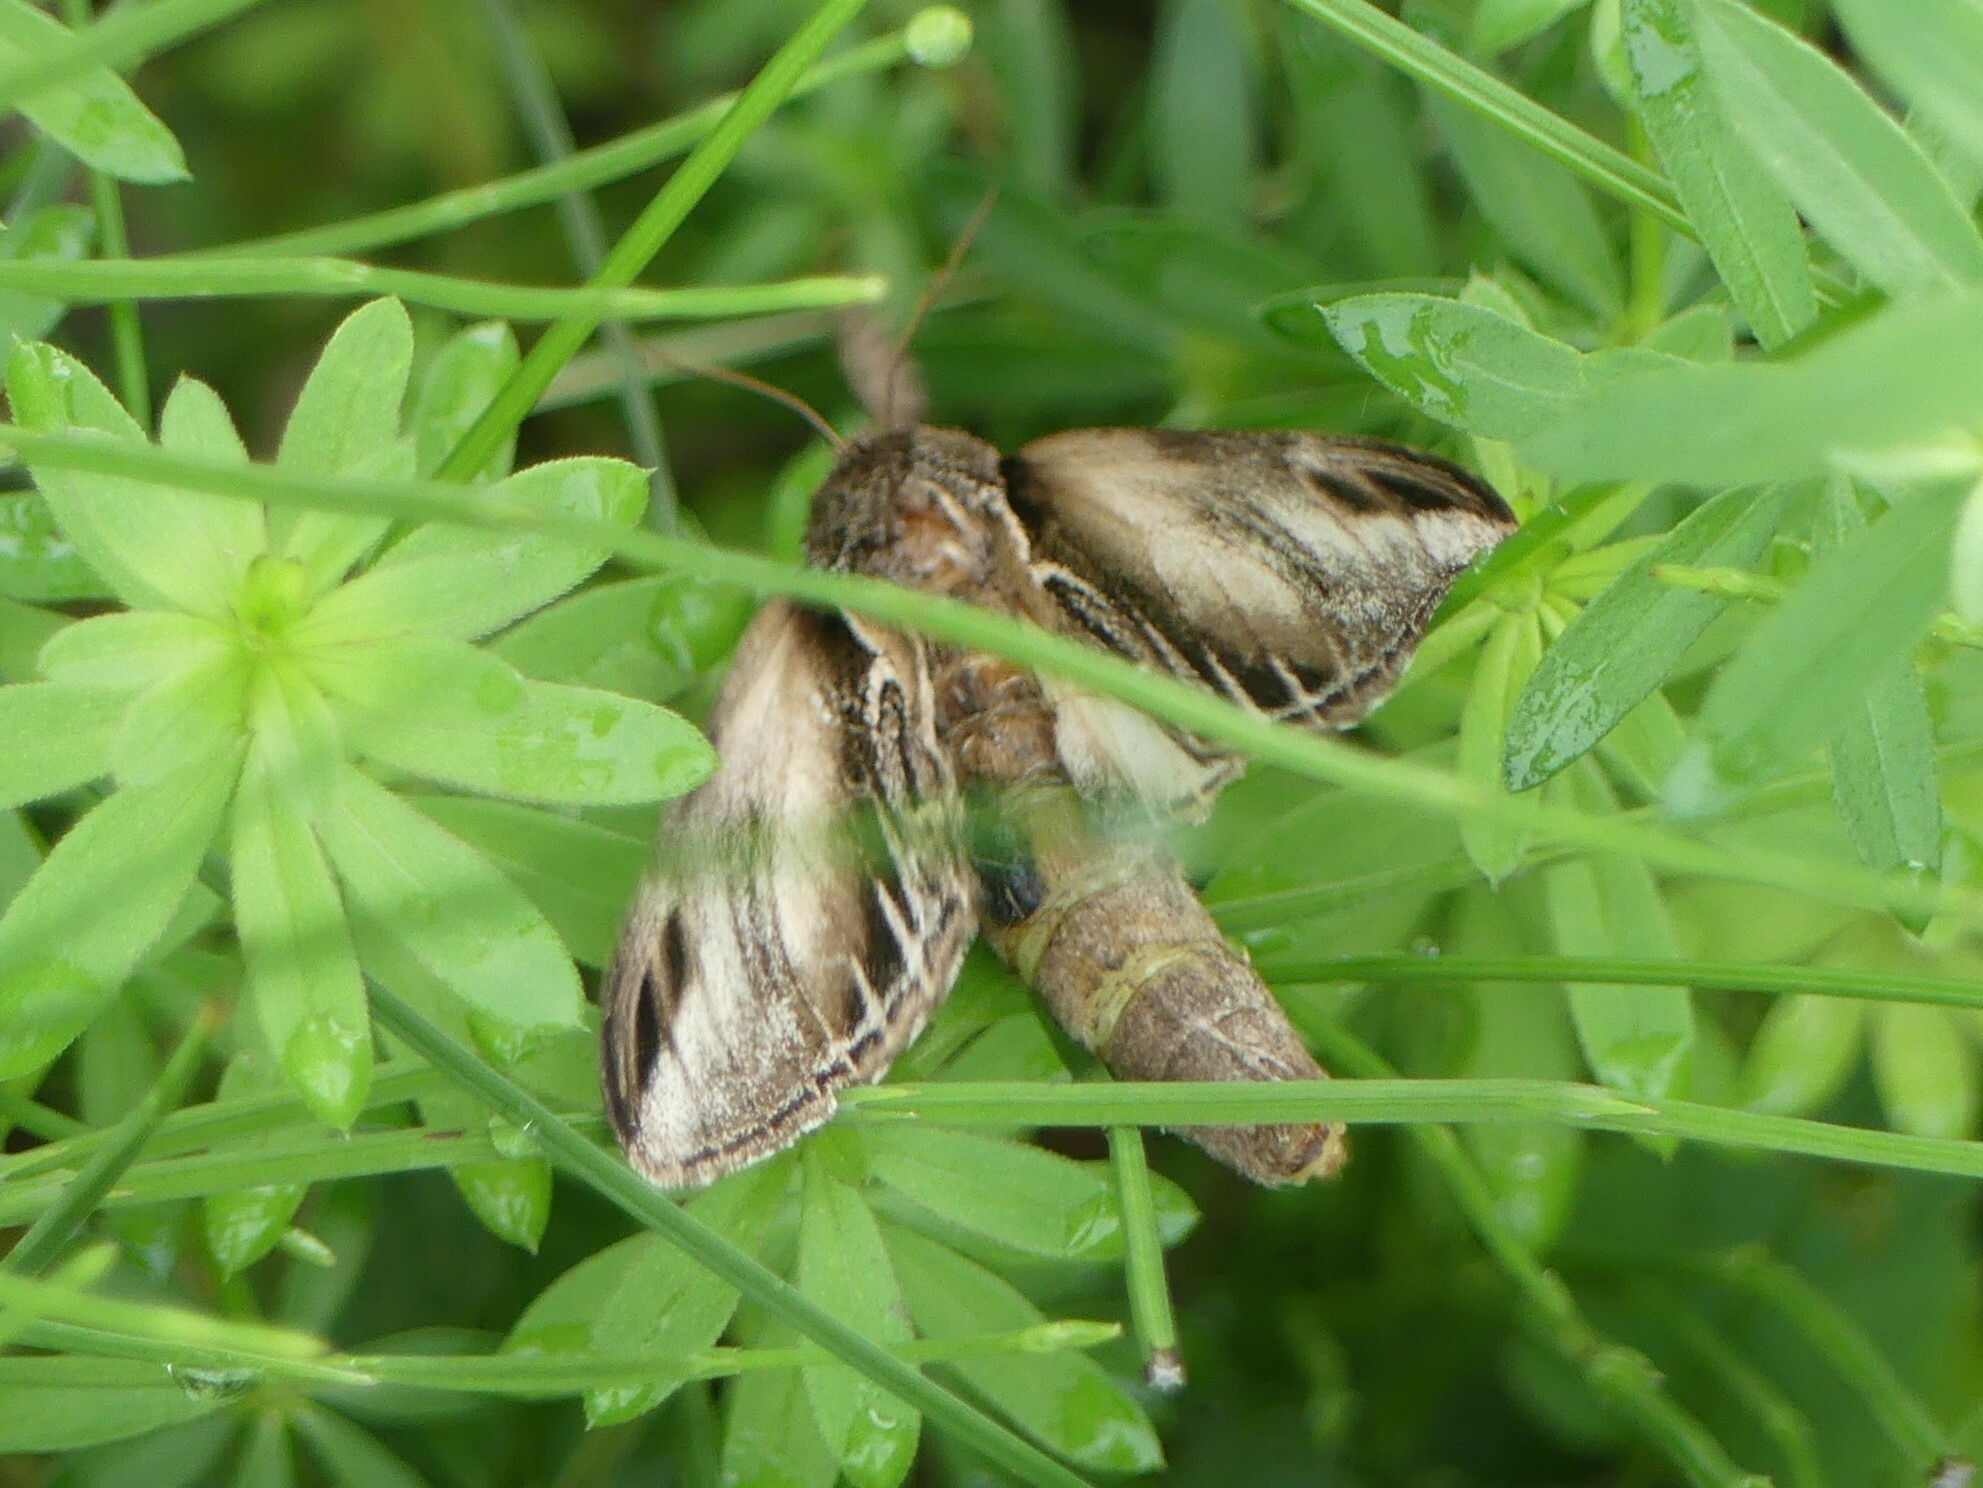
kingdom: Animalia
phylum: Arthropoda
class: Insecta
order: Lepidoptera
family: Notodontidae
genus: Pheosia
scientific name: Pheosia tremula
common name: Swallow prominent
